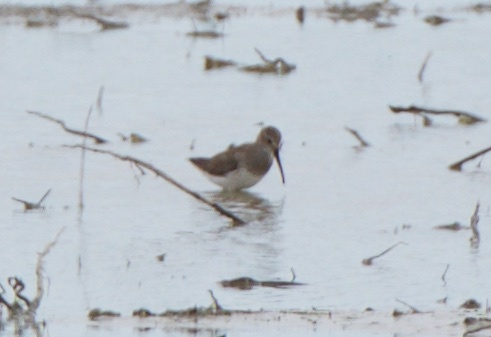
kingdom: Animalia
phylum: Chordata
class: Aves
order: Charadriiformes
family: Scolopacidae
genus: Calidris
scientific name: Calidris alpina
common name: Dunlin
